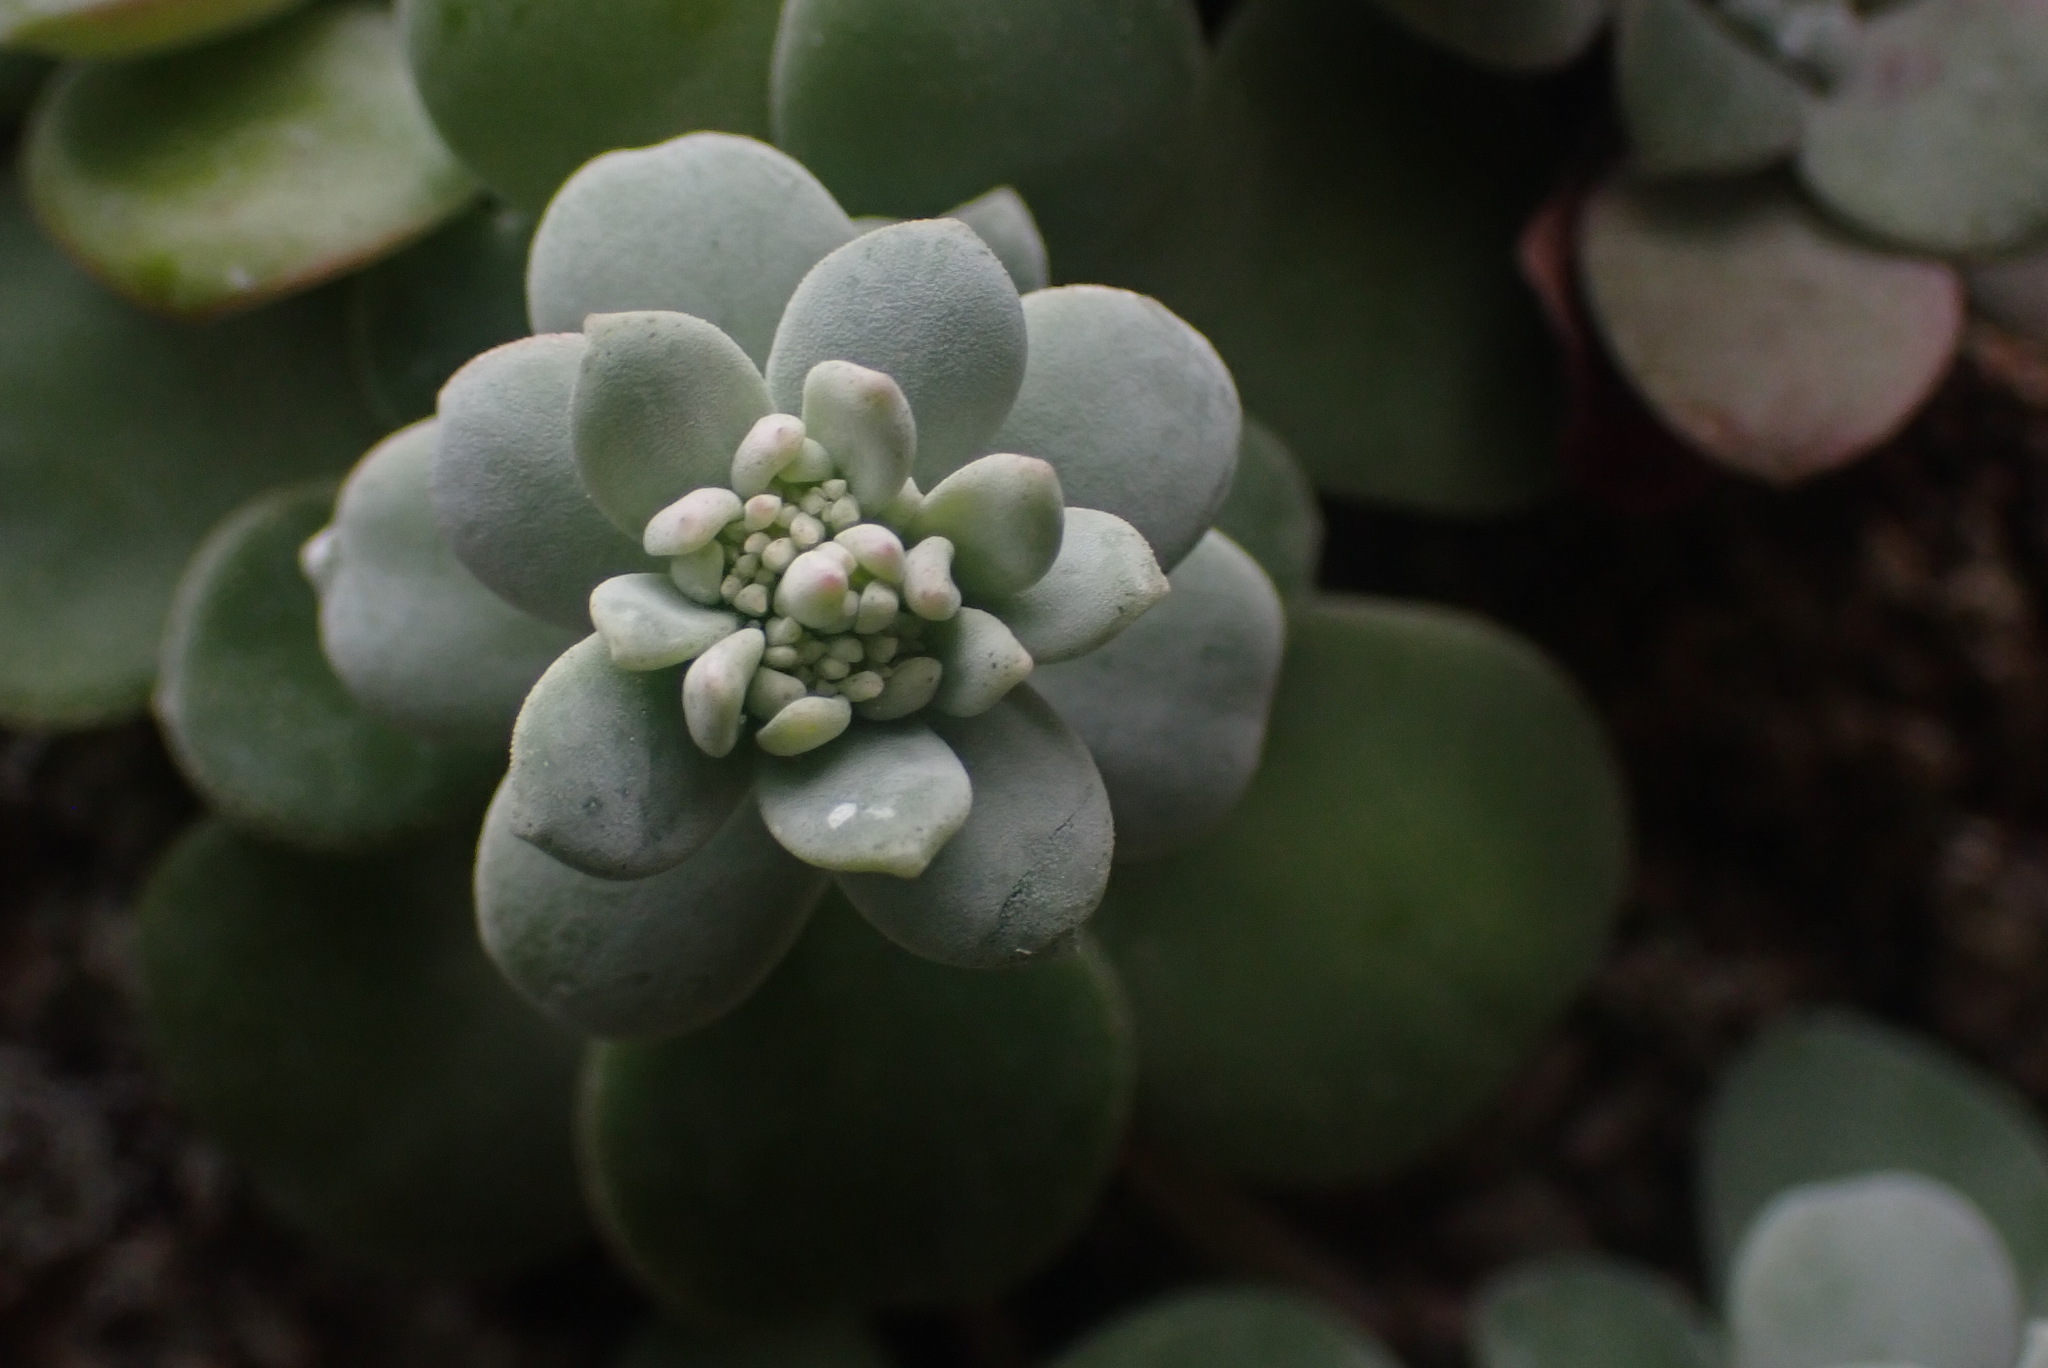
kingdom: Plantae
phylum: Tracheophyta
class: Magnoliopsida
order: Saxifragales
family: Crassulaceae
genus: Sedum
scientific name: Sedum spathulifolium
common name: Colorado stonecrop
